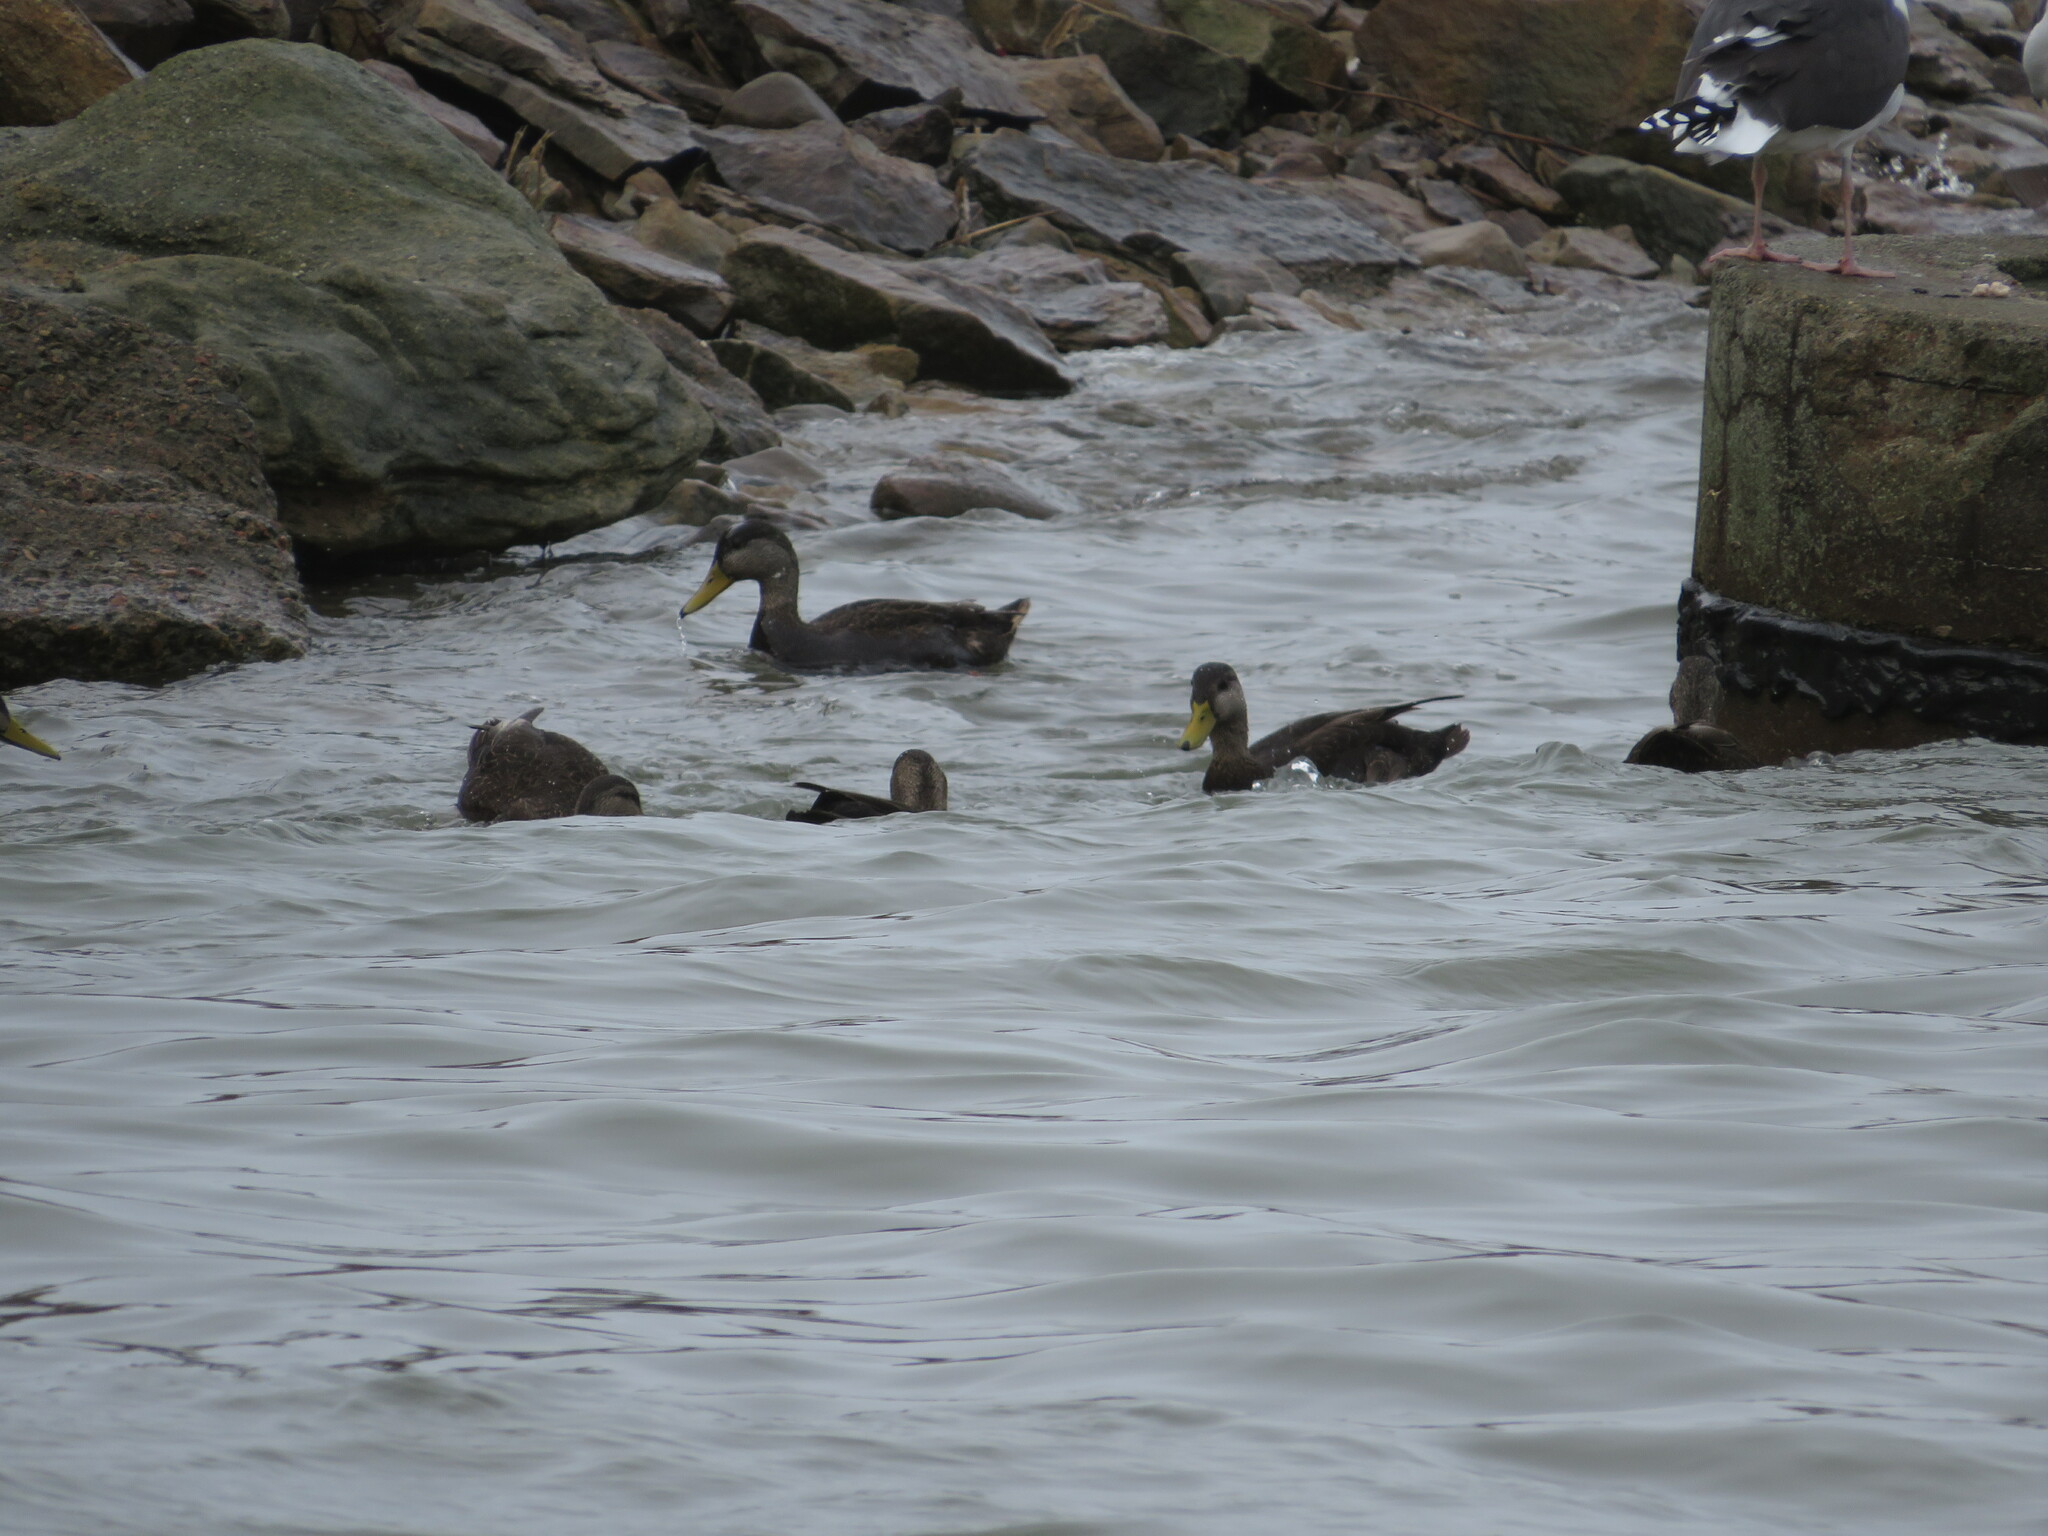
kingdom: Animalia
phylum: Chordata
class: Aves
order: Anseriformes
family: Anatidae
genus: Anas
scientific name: Anas rubripes
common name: American black duck
